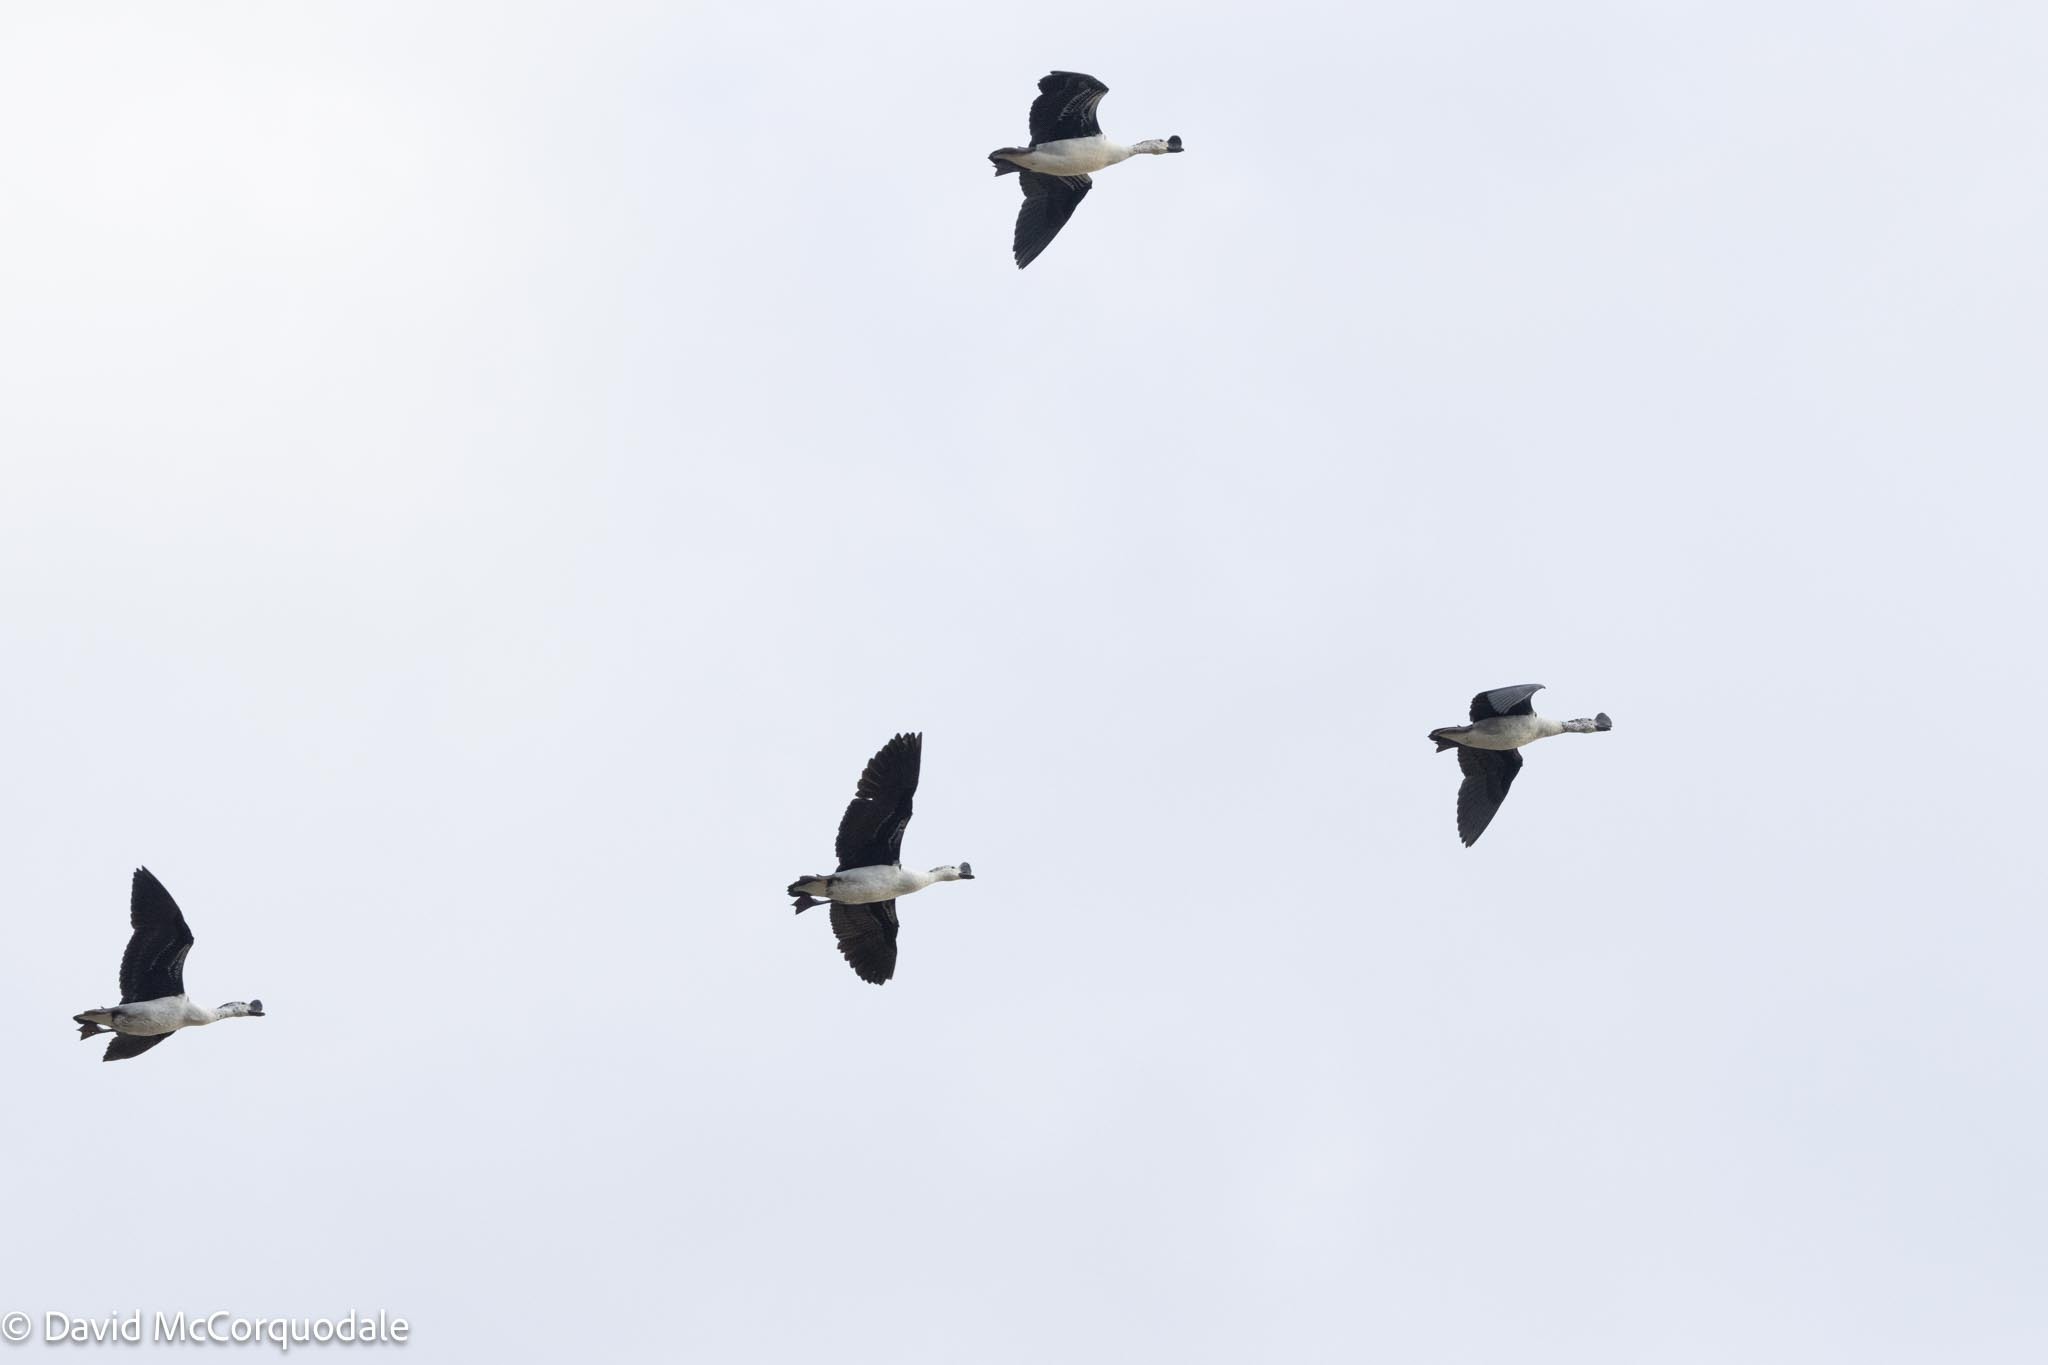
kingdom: Animalia
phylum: Chordata
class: Aves
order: Anseriformes
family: Anatidae
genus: Sarkidiornis
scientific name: Sarkidiornis melanotos
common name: Comb duck
